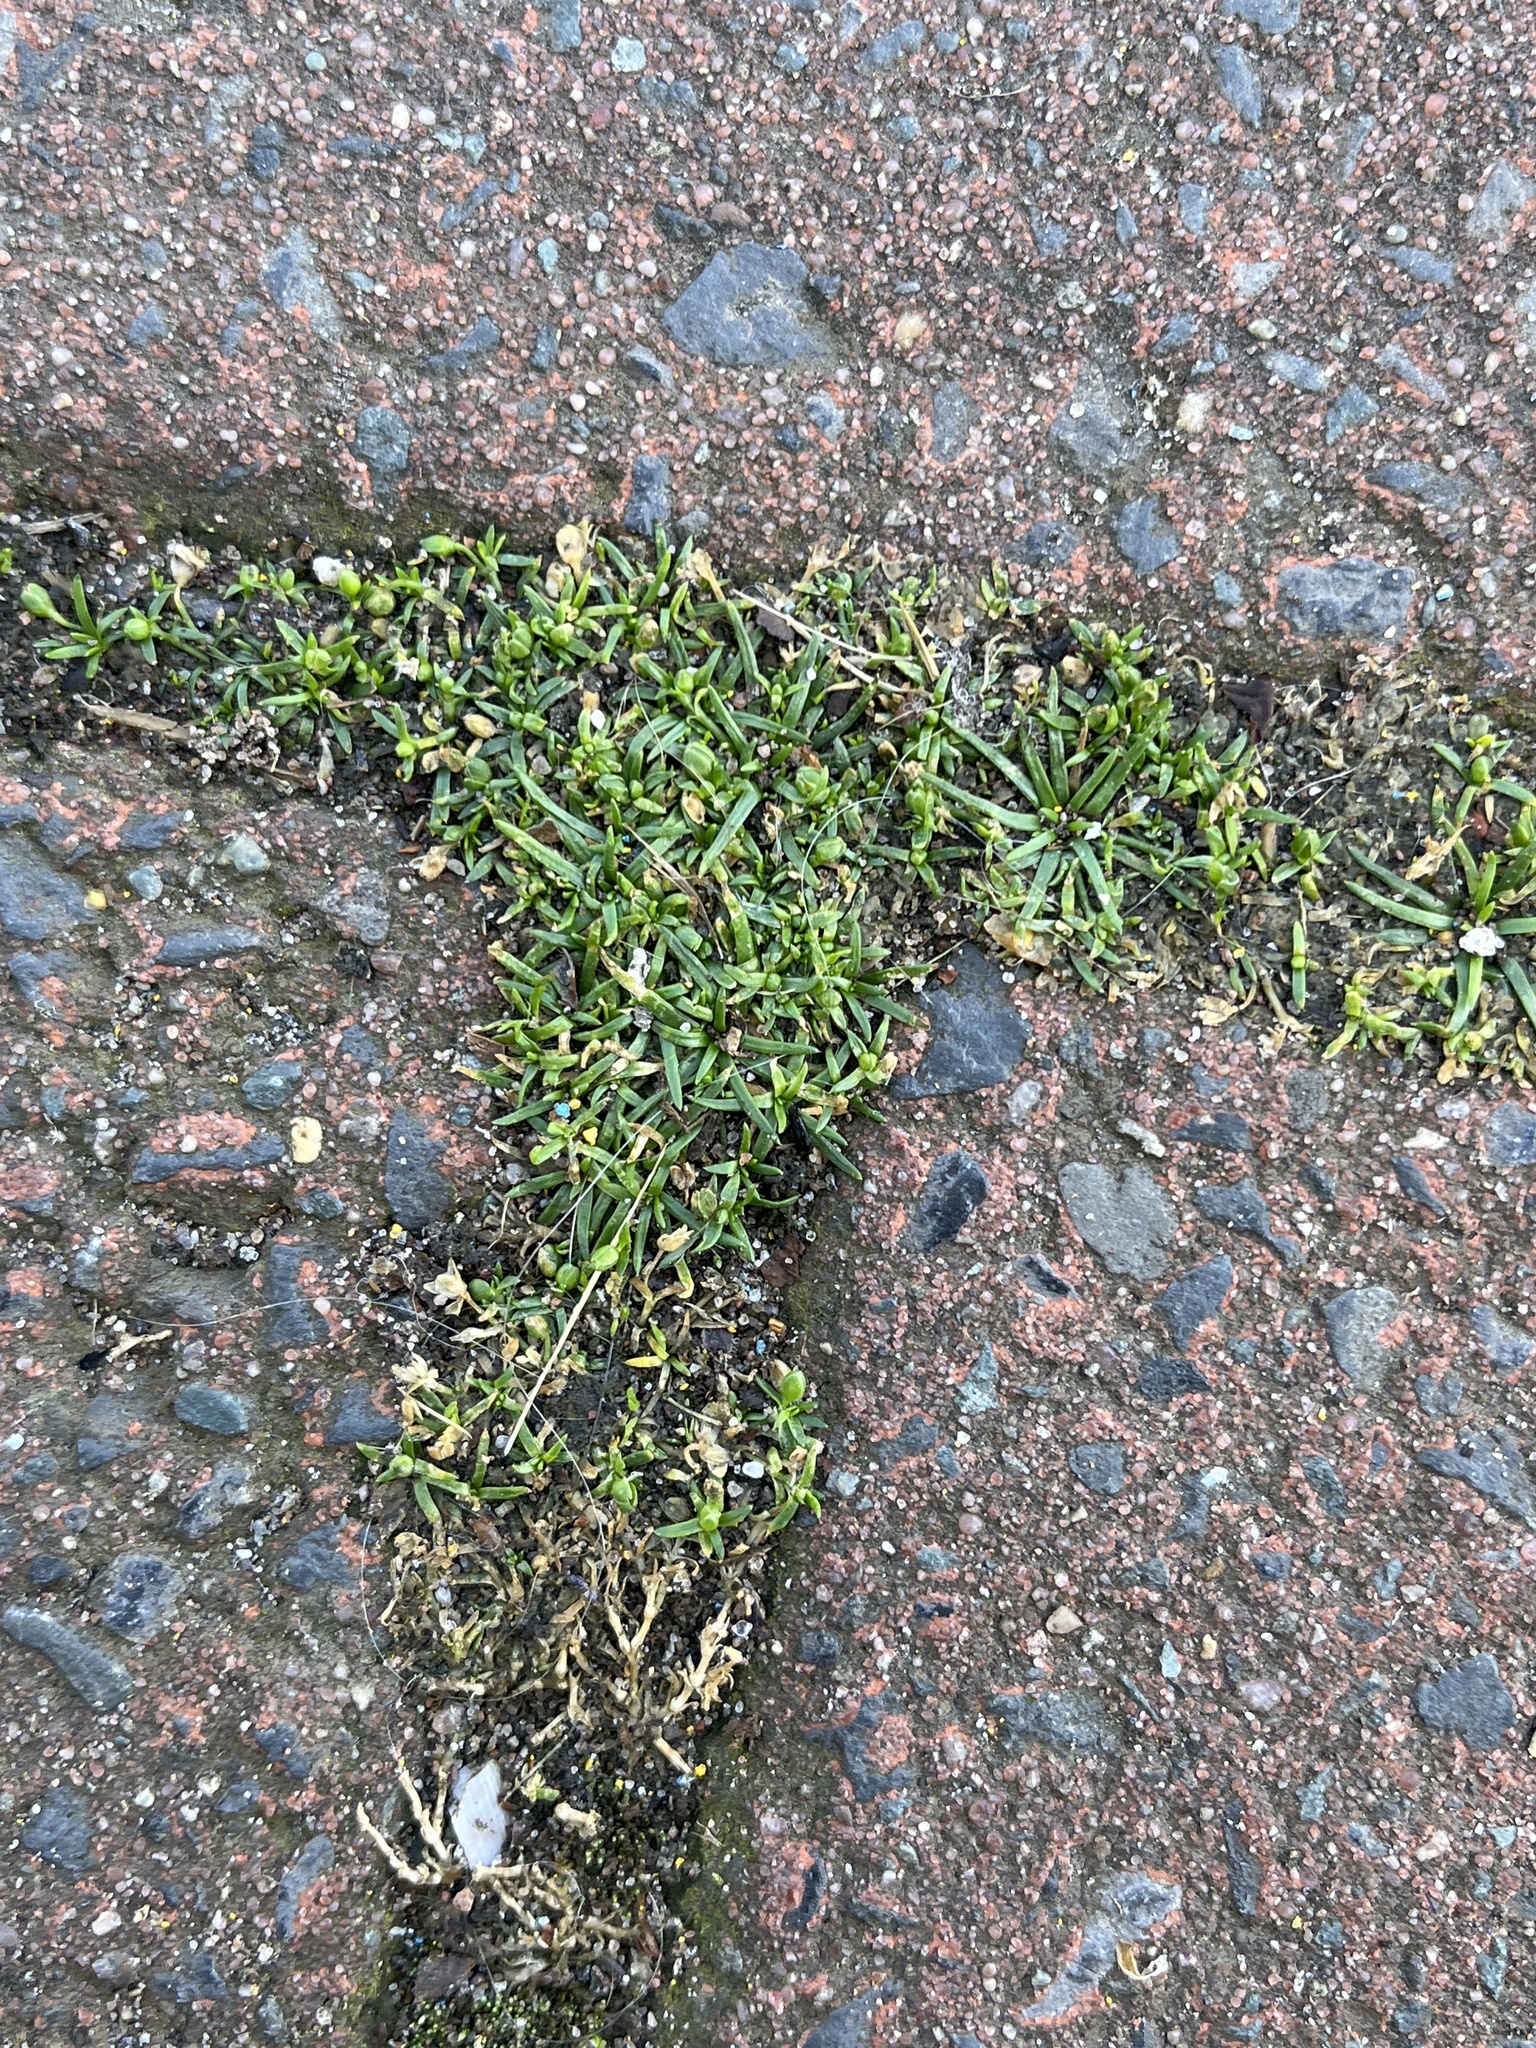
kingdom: Plantae
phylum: Tracheophyta
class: Magnoliopsida
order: Caryophyllales
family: Caryophyllaceae
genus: Sagina
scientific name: Sagina procumbens
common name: Procumbent pearlwort
